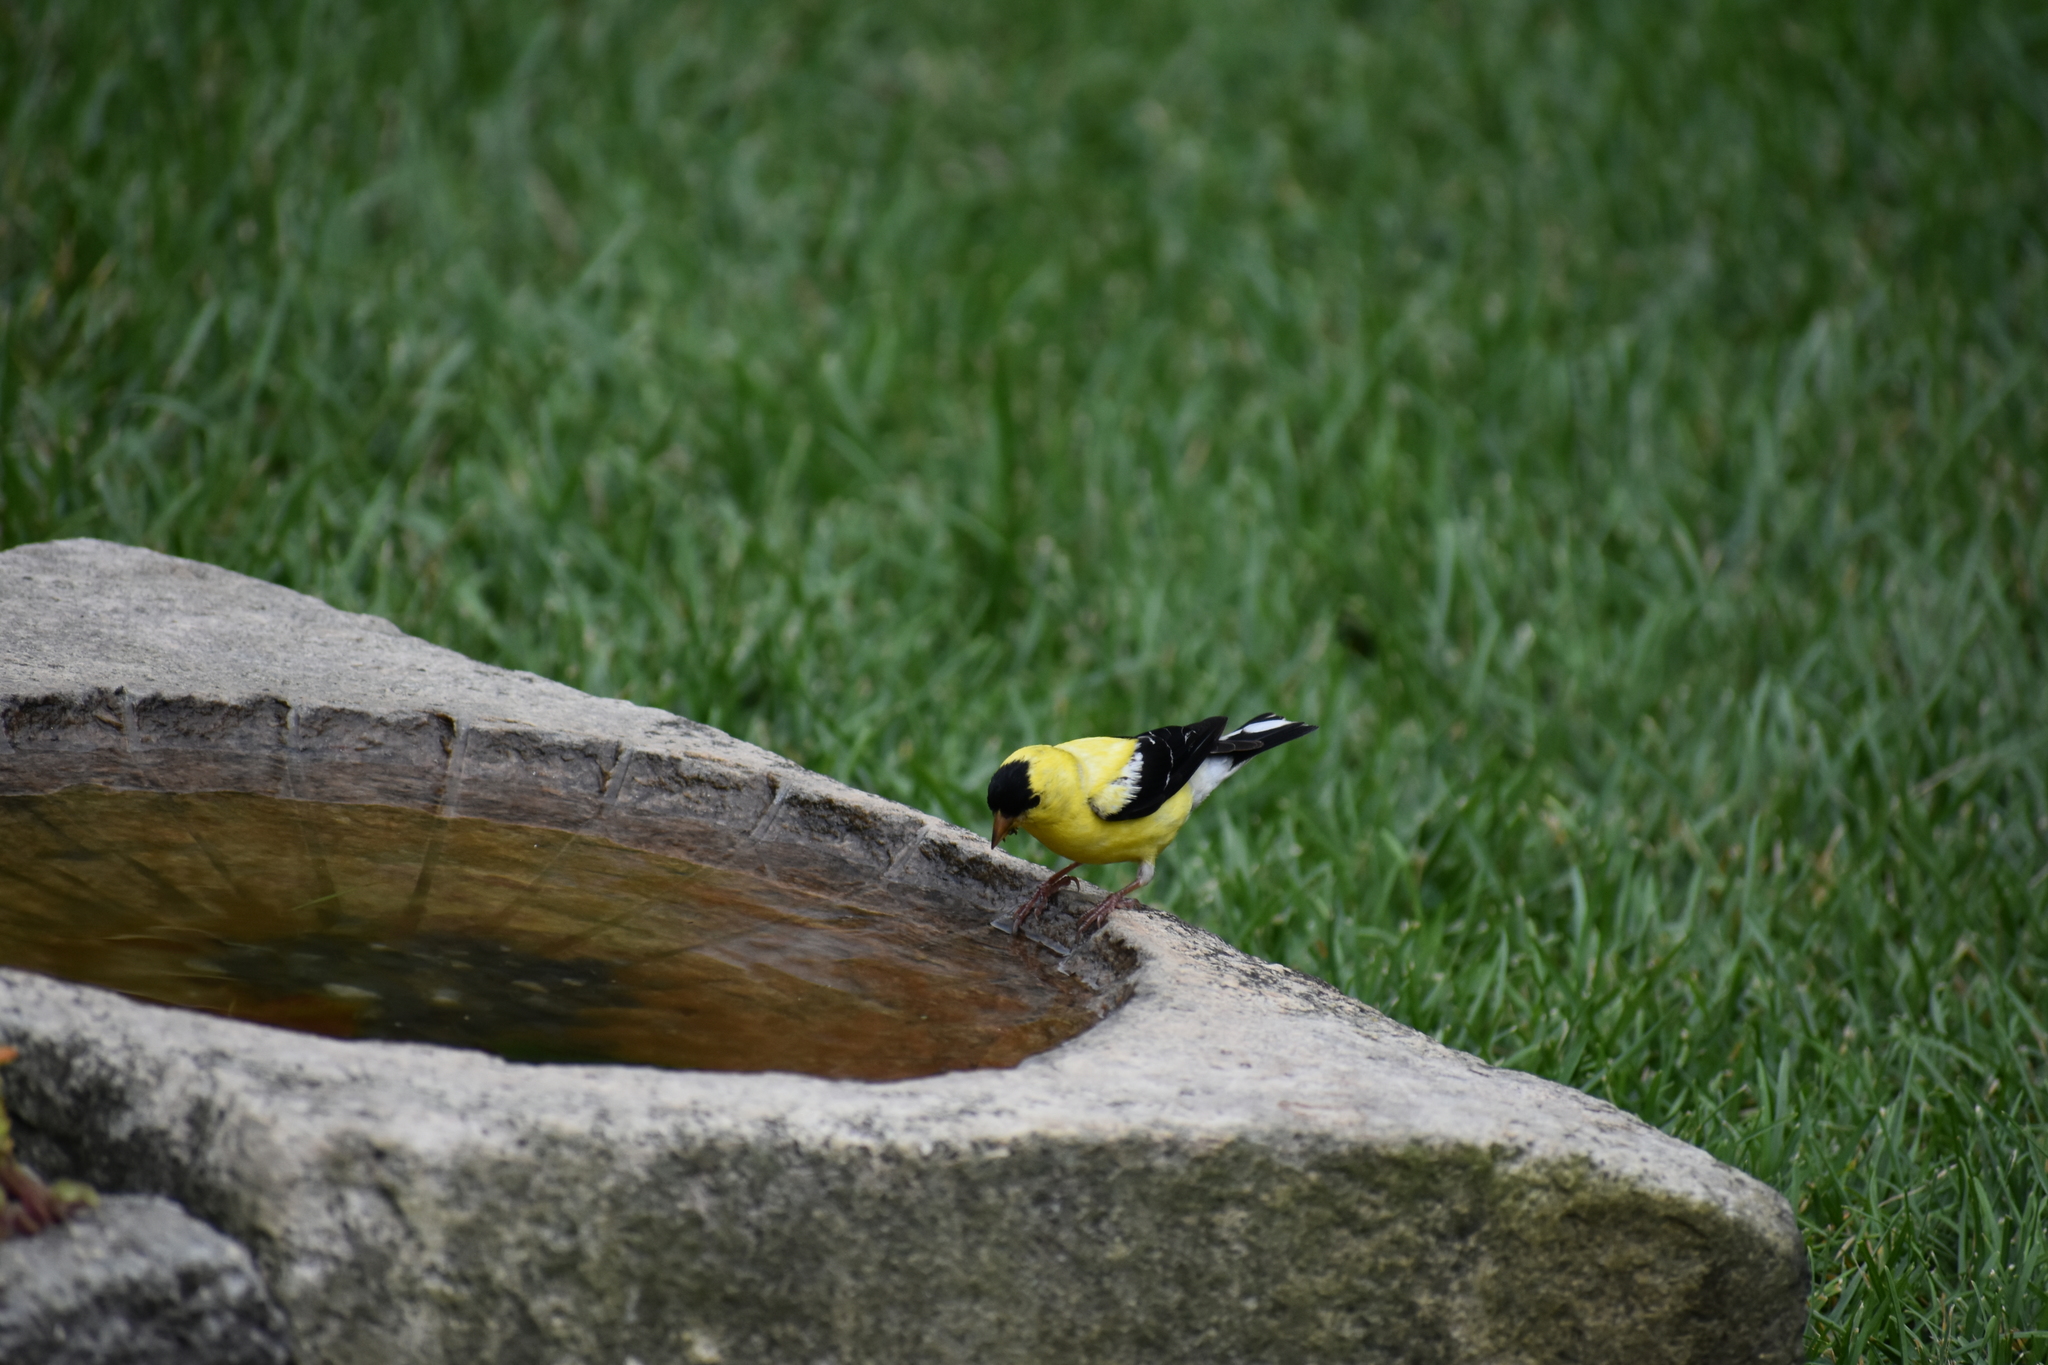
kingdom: Animalia
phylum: Chordata
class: Aves
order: Passeriformes
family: Fringillidae
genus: Spinus
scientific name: Spinus tristis
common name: American goldfinch
